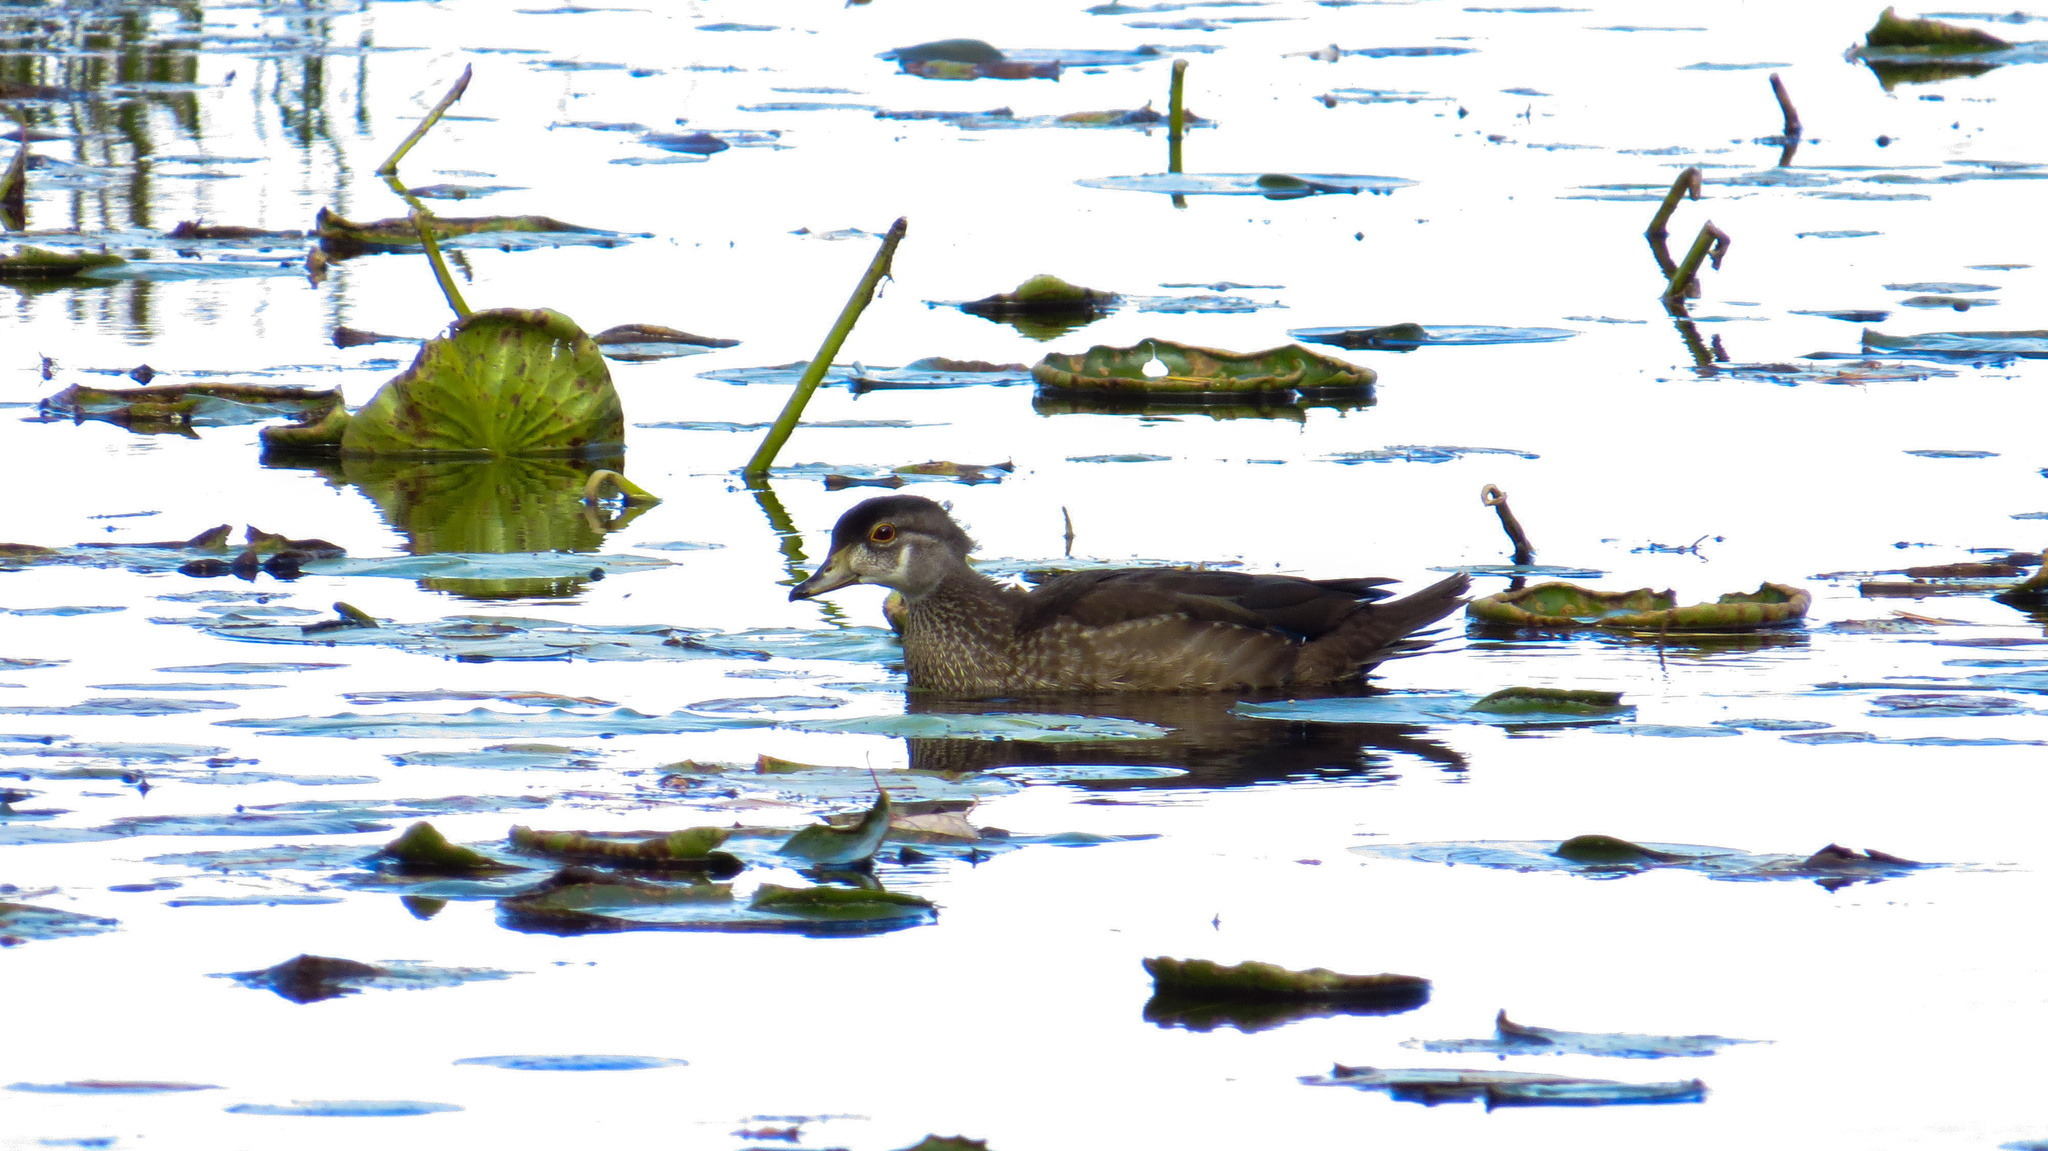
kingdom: Animalia
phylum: Chordata
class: Aves
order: Anseriformes
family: Anatidae
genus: Aix
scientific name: Aix sponsa
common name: Wood duck
